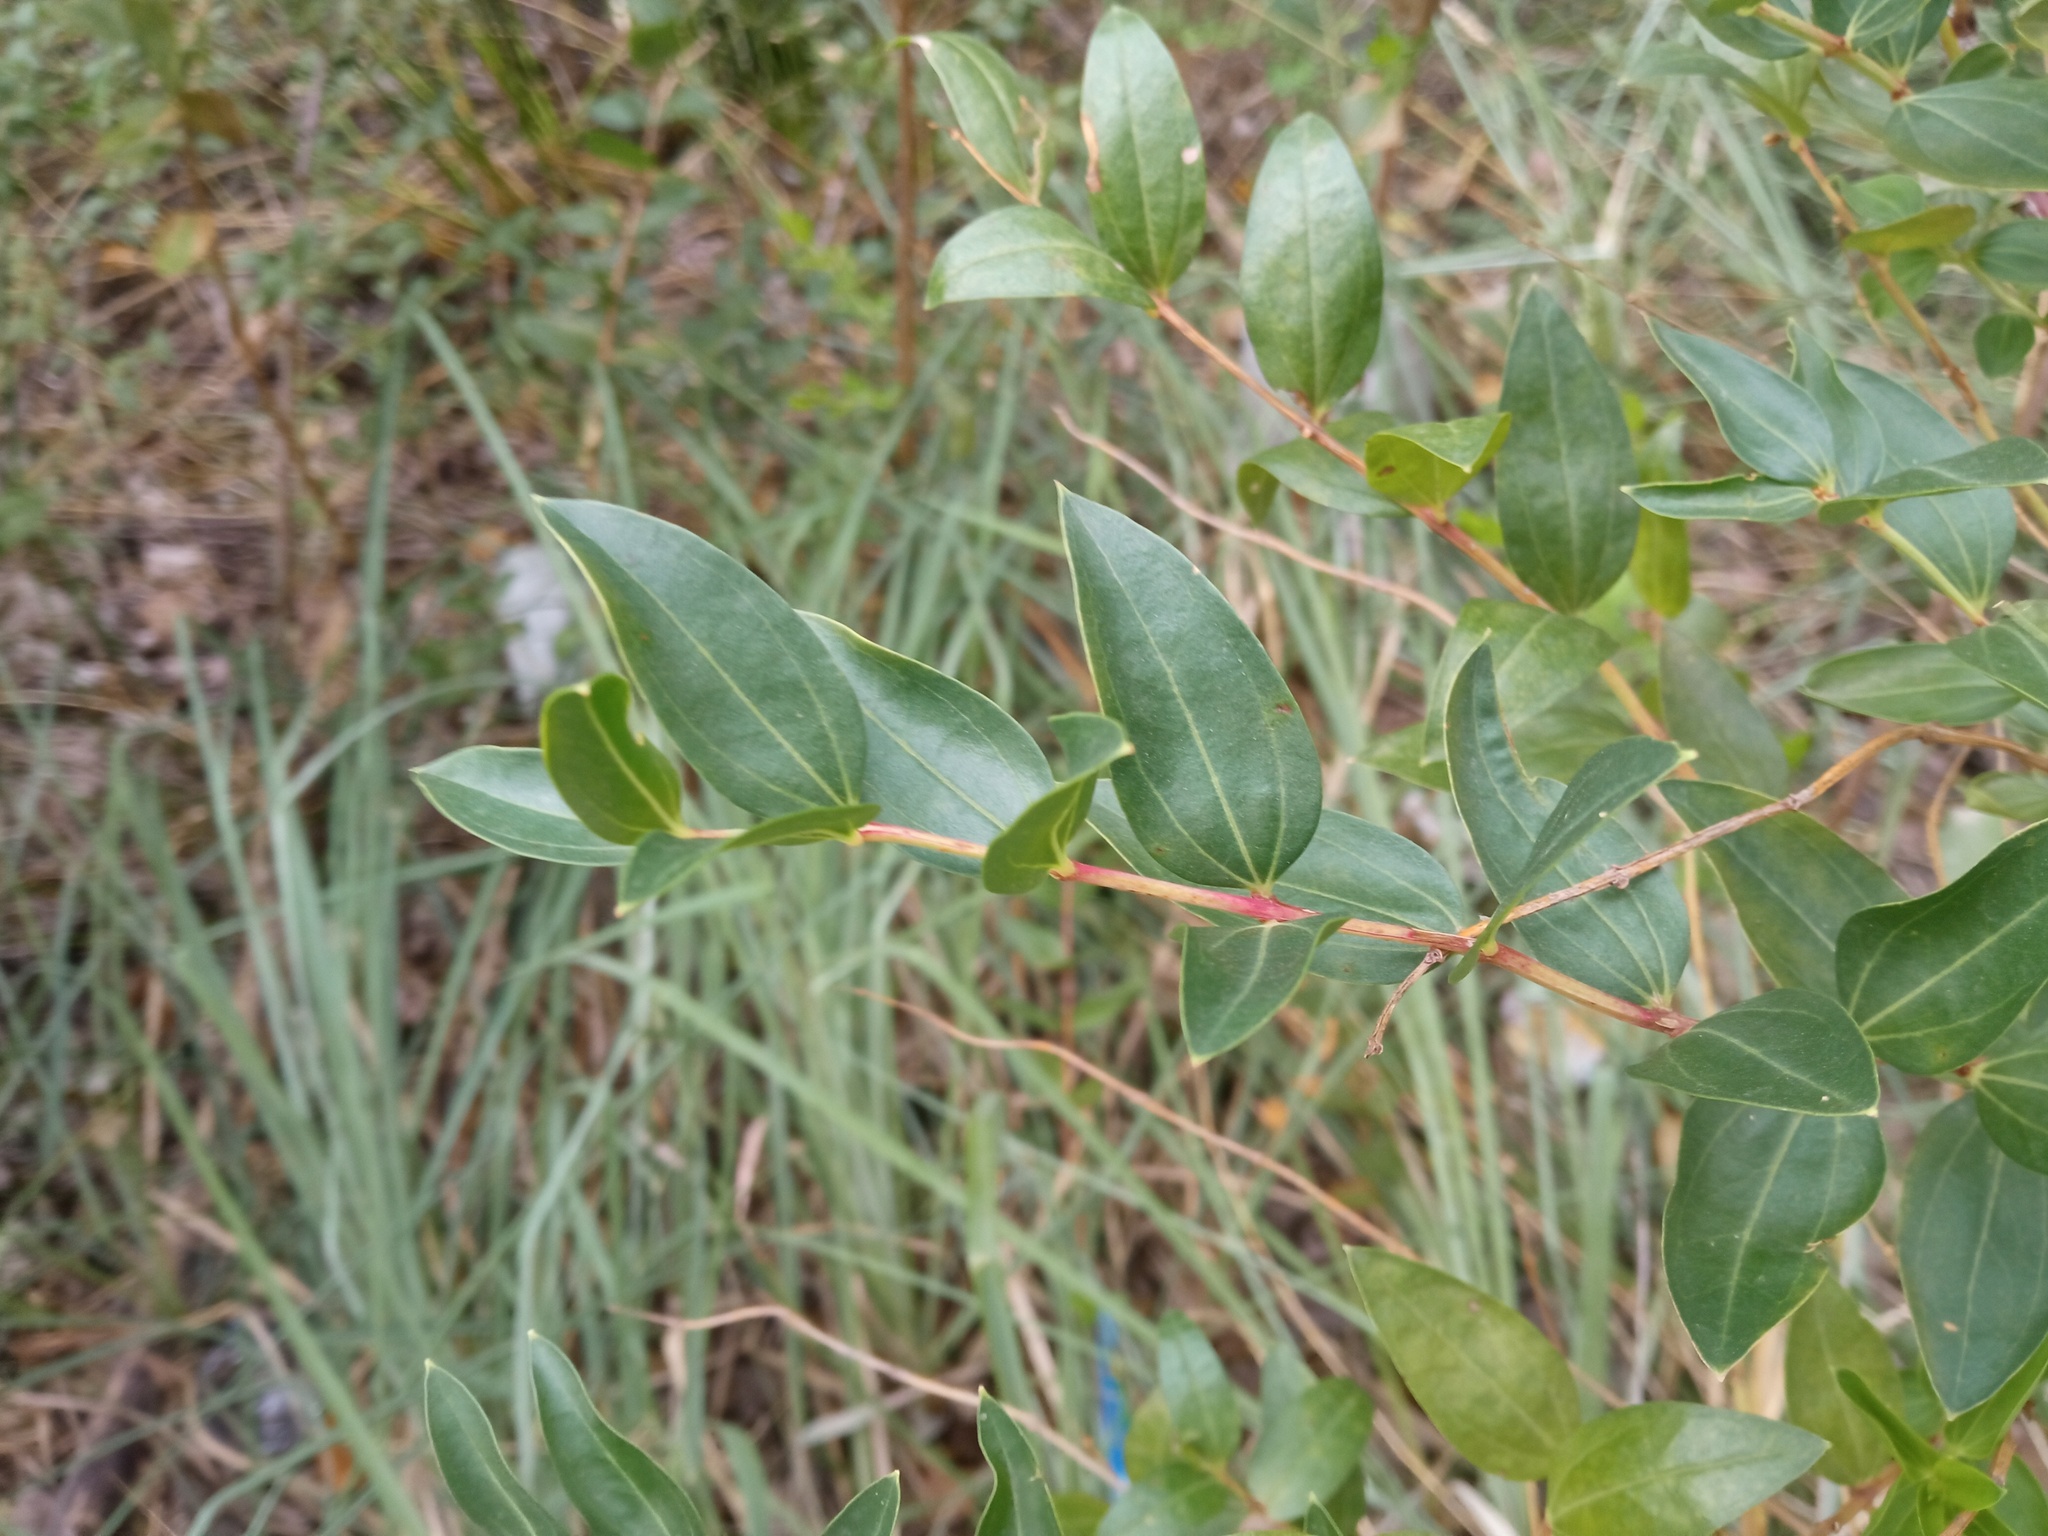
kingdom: Plantae
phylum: Tracheophyta
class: Magnoliopsida
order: Cucurbitales
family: Coriariaceae
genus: Coriaria
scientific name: Coriaria myrtifolia
